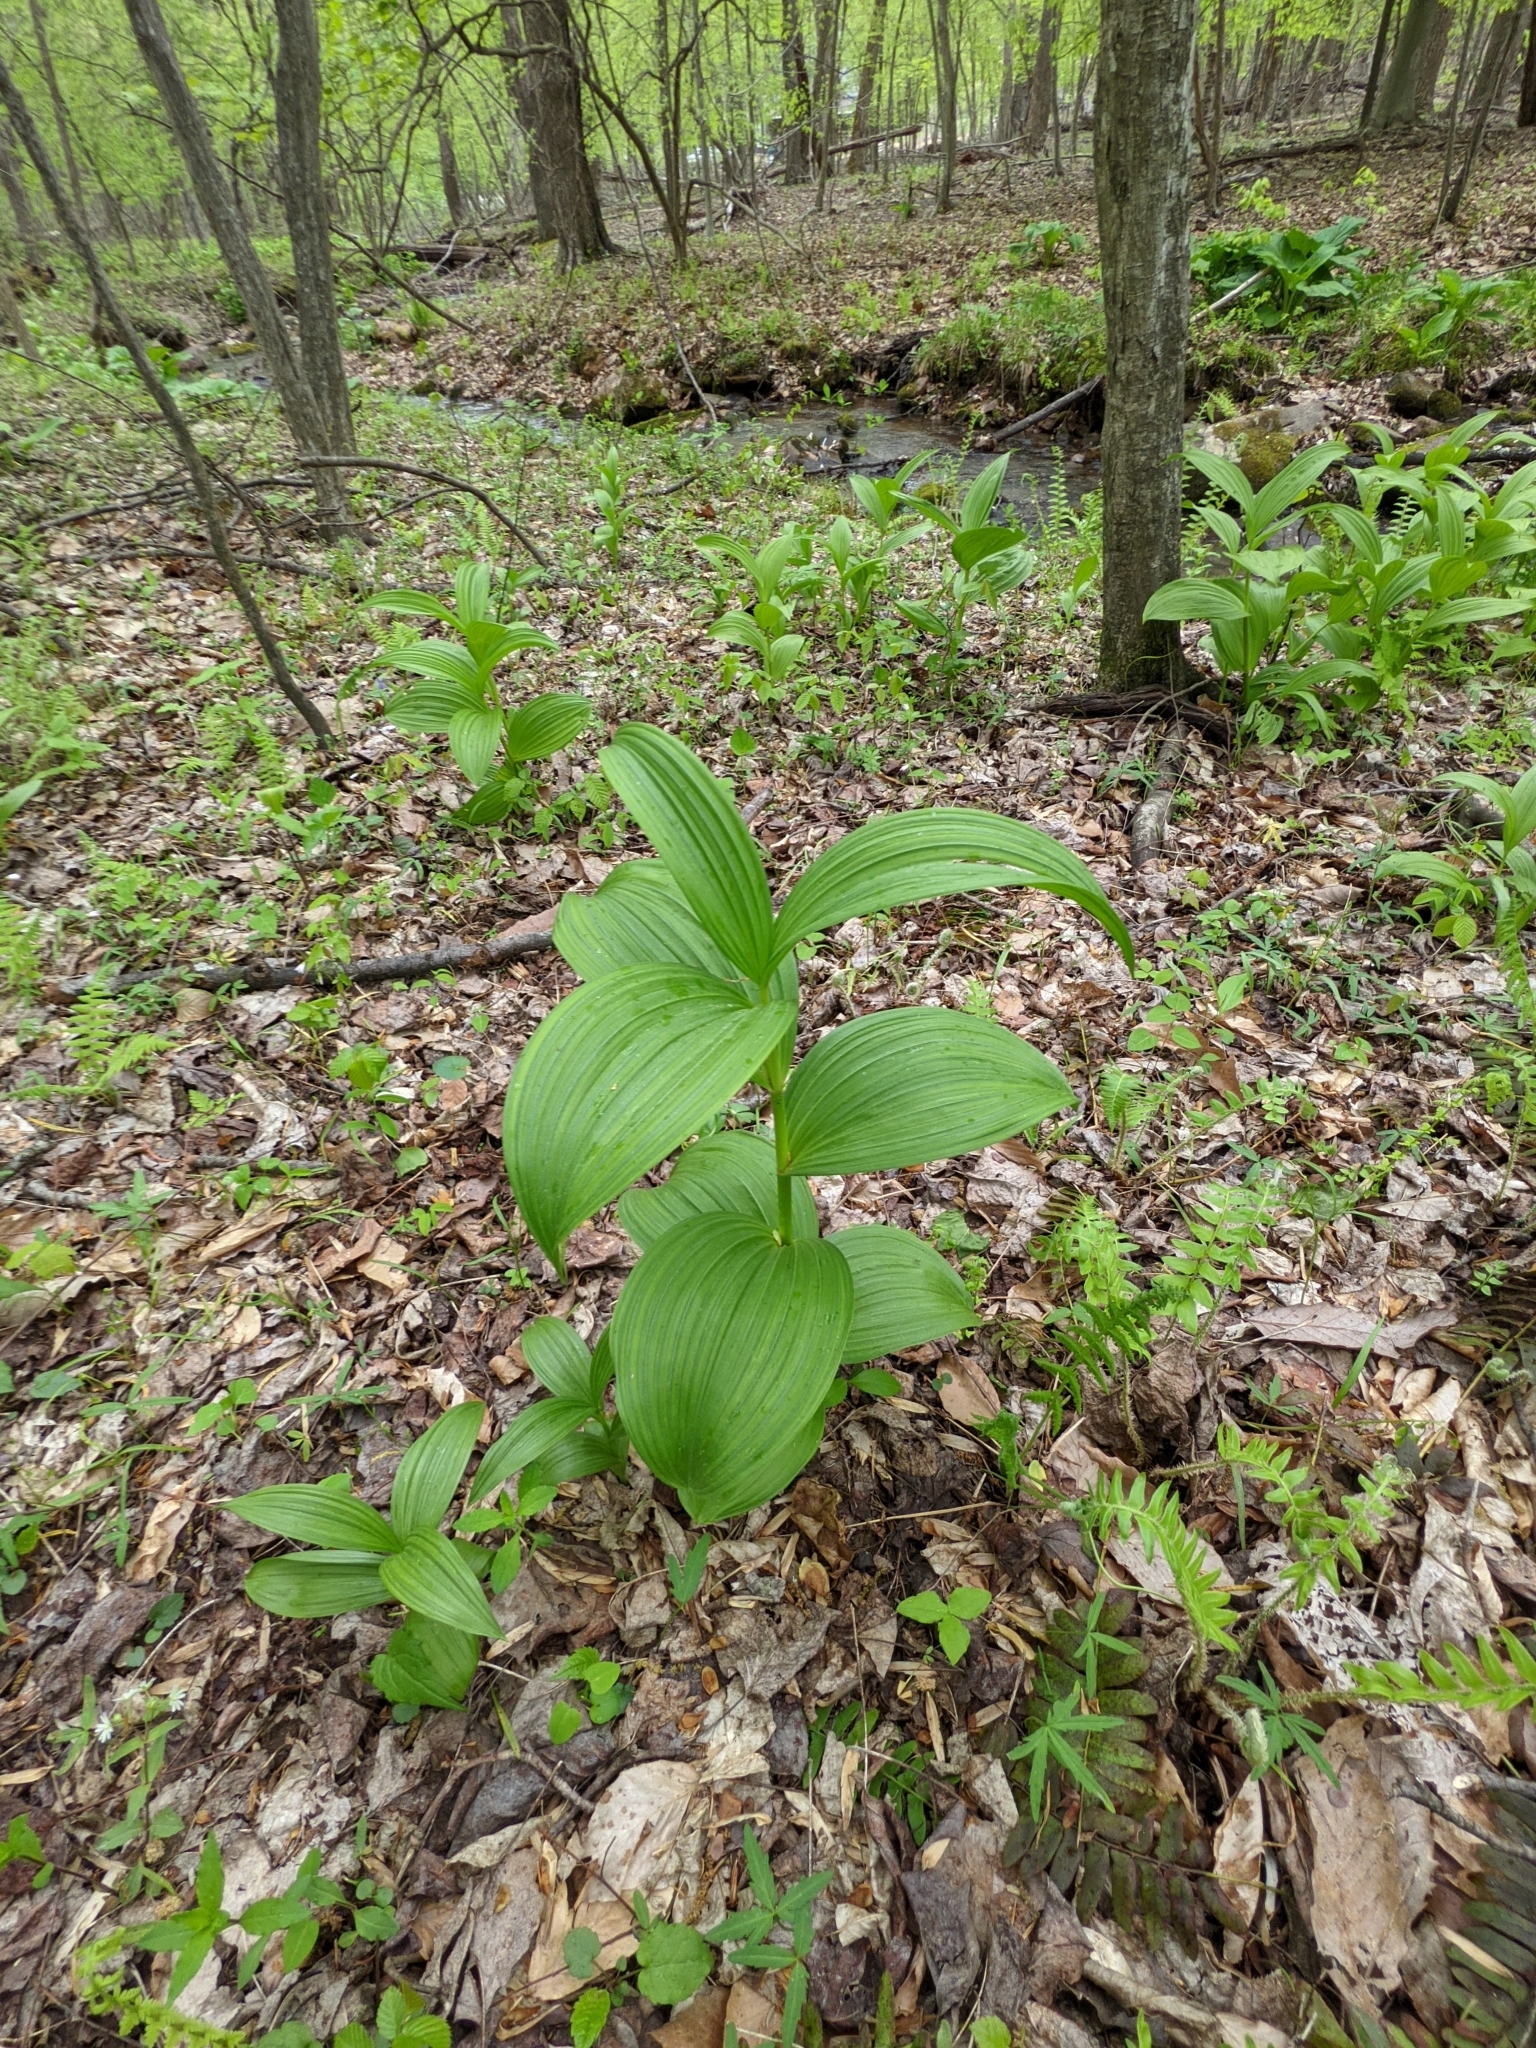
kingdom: Plantae
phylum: Tracheophyta
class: Liliopsida
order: Liliales
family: Melanthiaceae
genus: Veratrum
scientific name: Veratrum viride
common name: American false hellebore
